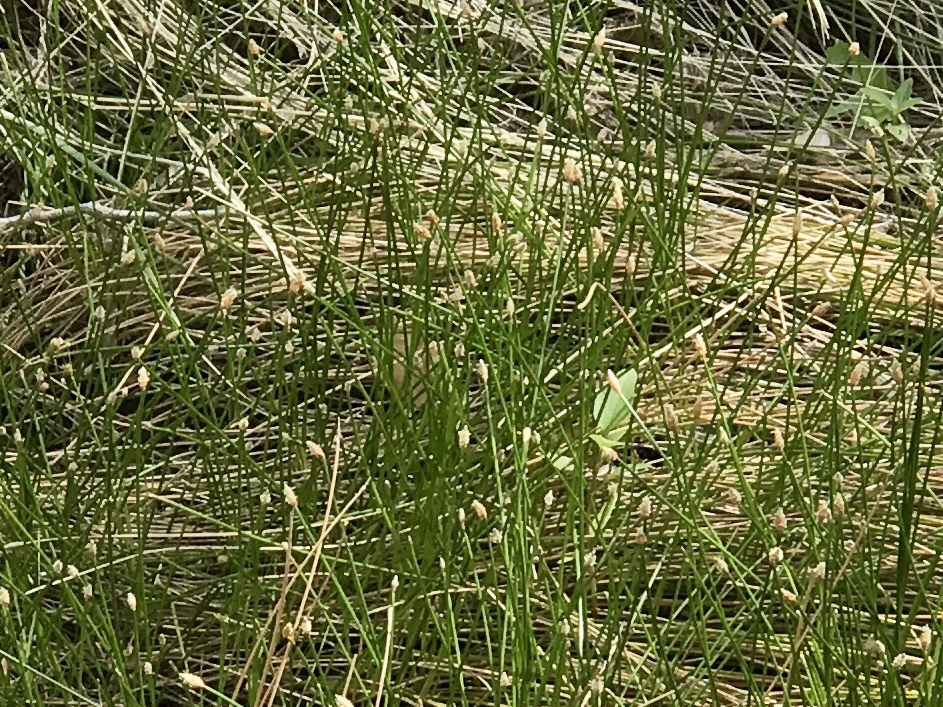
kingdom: Plantae
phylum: Tracheophyta
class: Liliopsida
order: Poales
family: Cyperaceae
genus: Eleocharis
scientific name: Eleocharis montana
